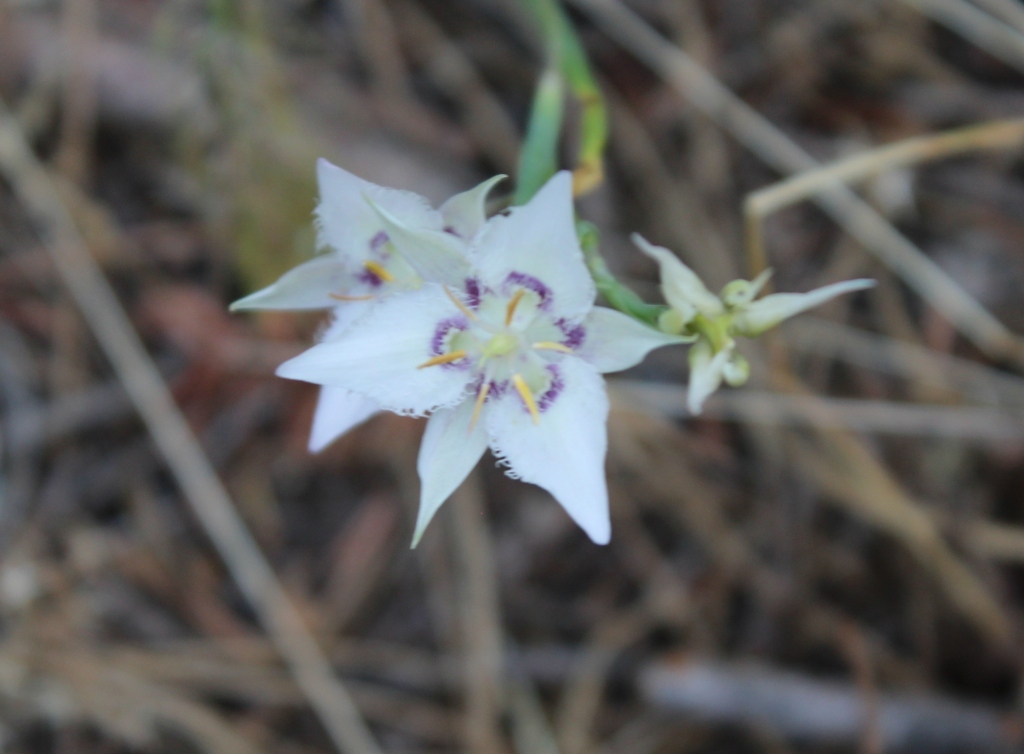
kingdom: Plantae
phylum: Tracheophyta
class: Liliopsida
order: Liliales
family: Liliaceae
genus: Calochortus
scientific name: Calochortus lyallii
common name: Lyall's mariposa lily
